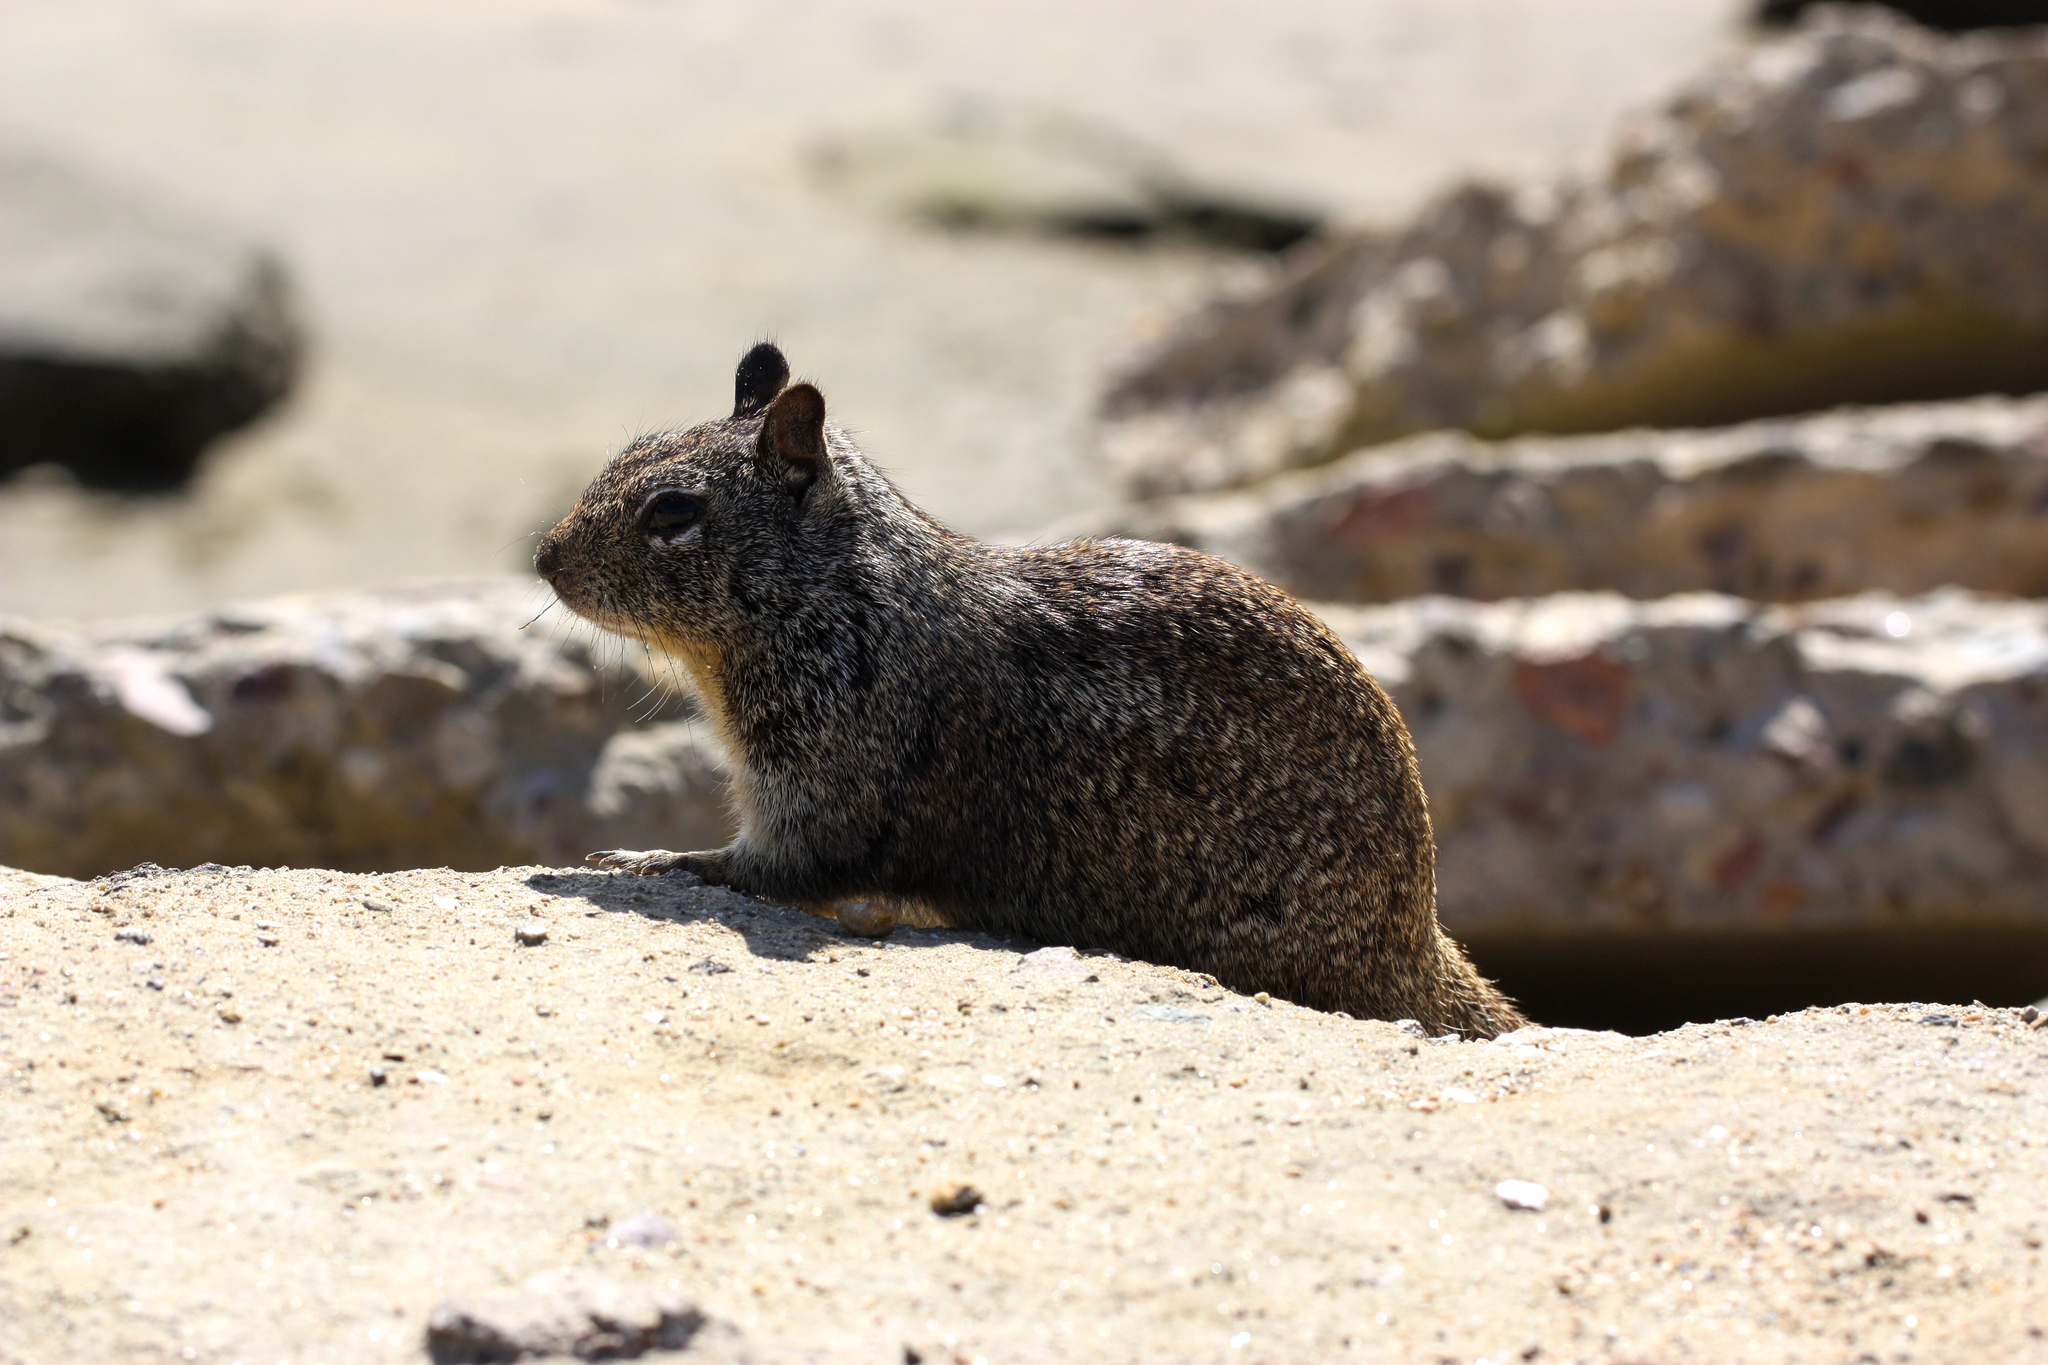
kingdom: Animalia
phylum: Chordata
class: Mammalia
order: Rodentia
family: Sciuridae
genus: Otospermophilus
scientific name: Otospermophilus beecheyi
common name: California ground squirrel
